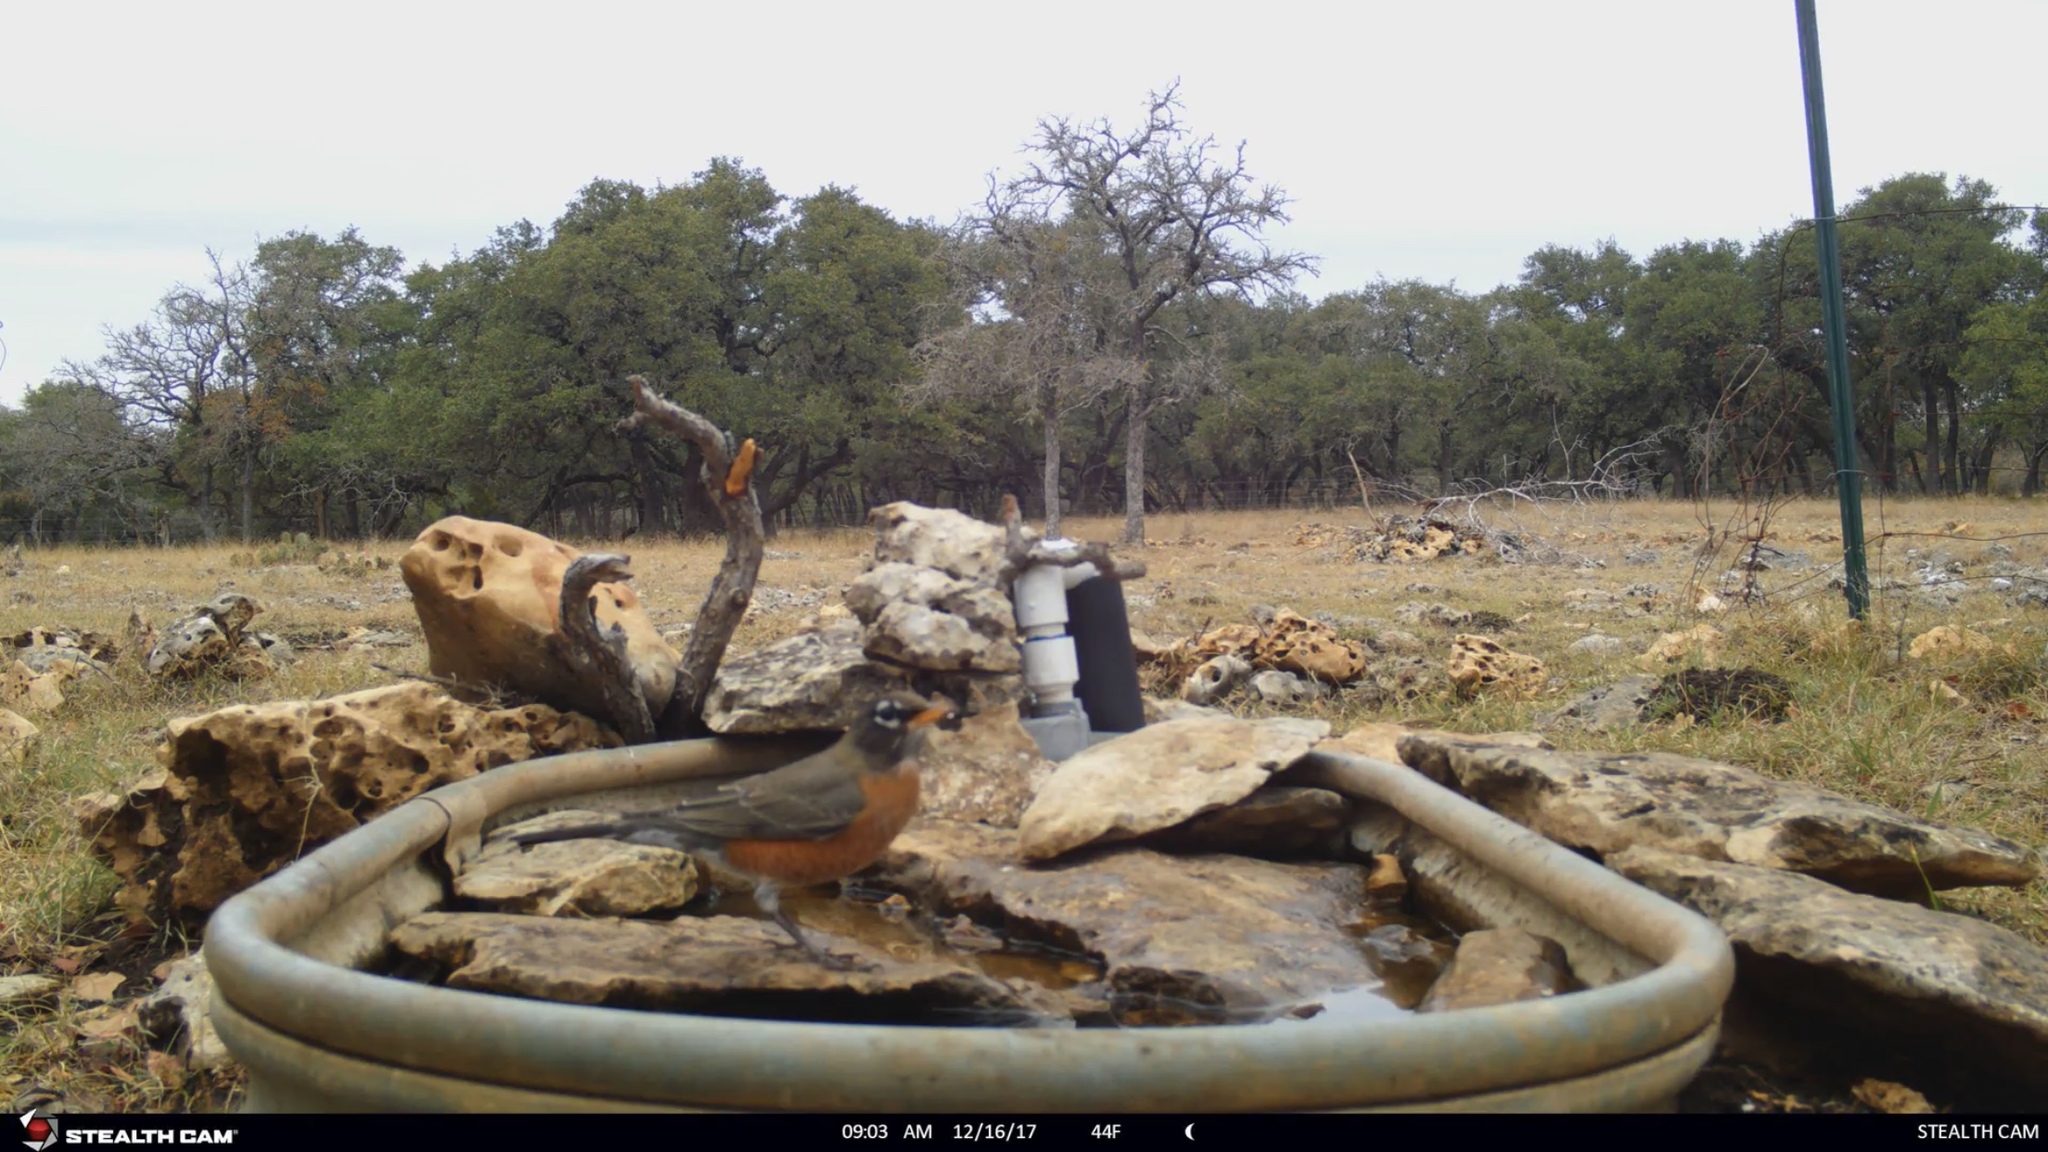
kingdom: Animalia
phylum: Chordata
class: Aves
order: Passeriformes
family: Turdidae
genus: Turdus
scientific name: Turdus migratorius
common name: American robin
